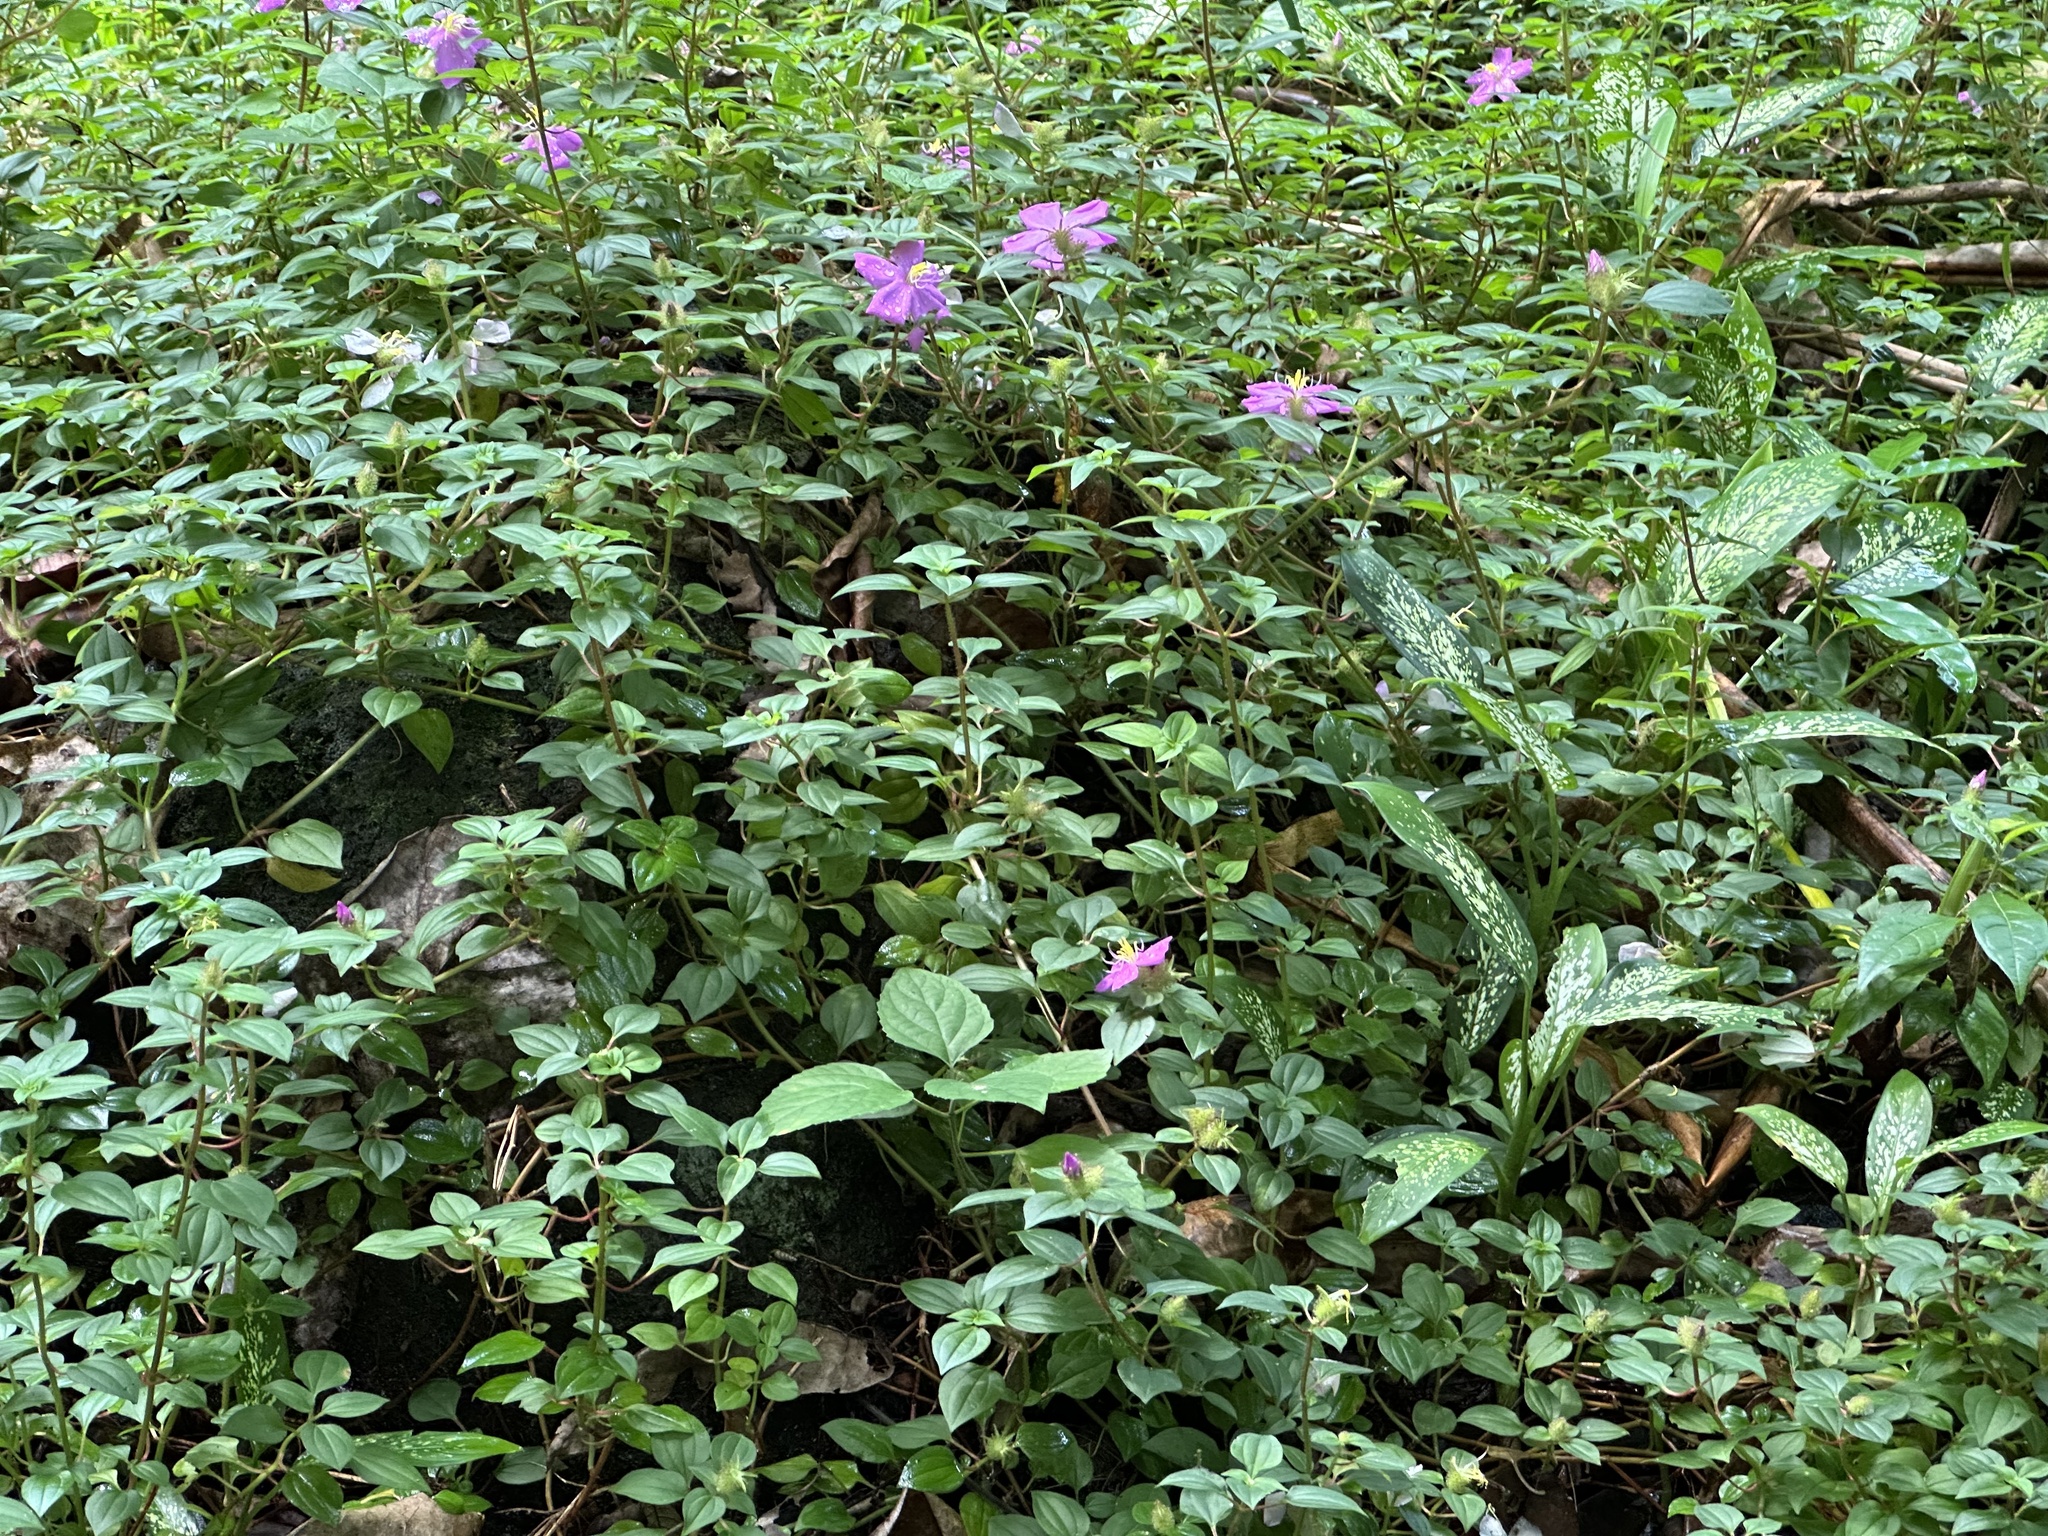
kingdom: Plantae
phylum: Tracheophyta
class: Magnoliopsida
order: Myrtales
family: Melastomataceae
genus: Heterotis
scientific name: Heterotis rotundifolia
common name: Pinklady
